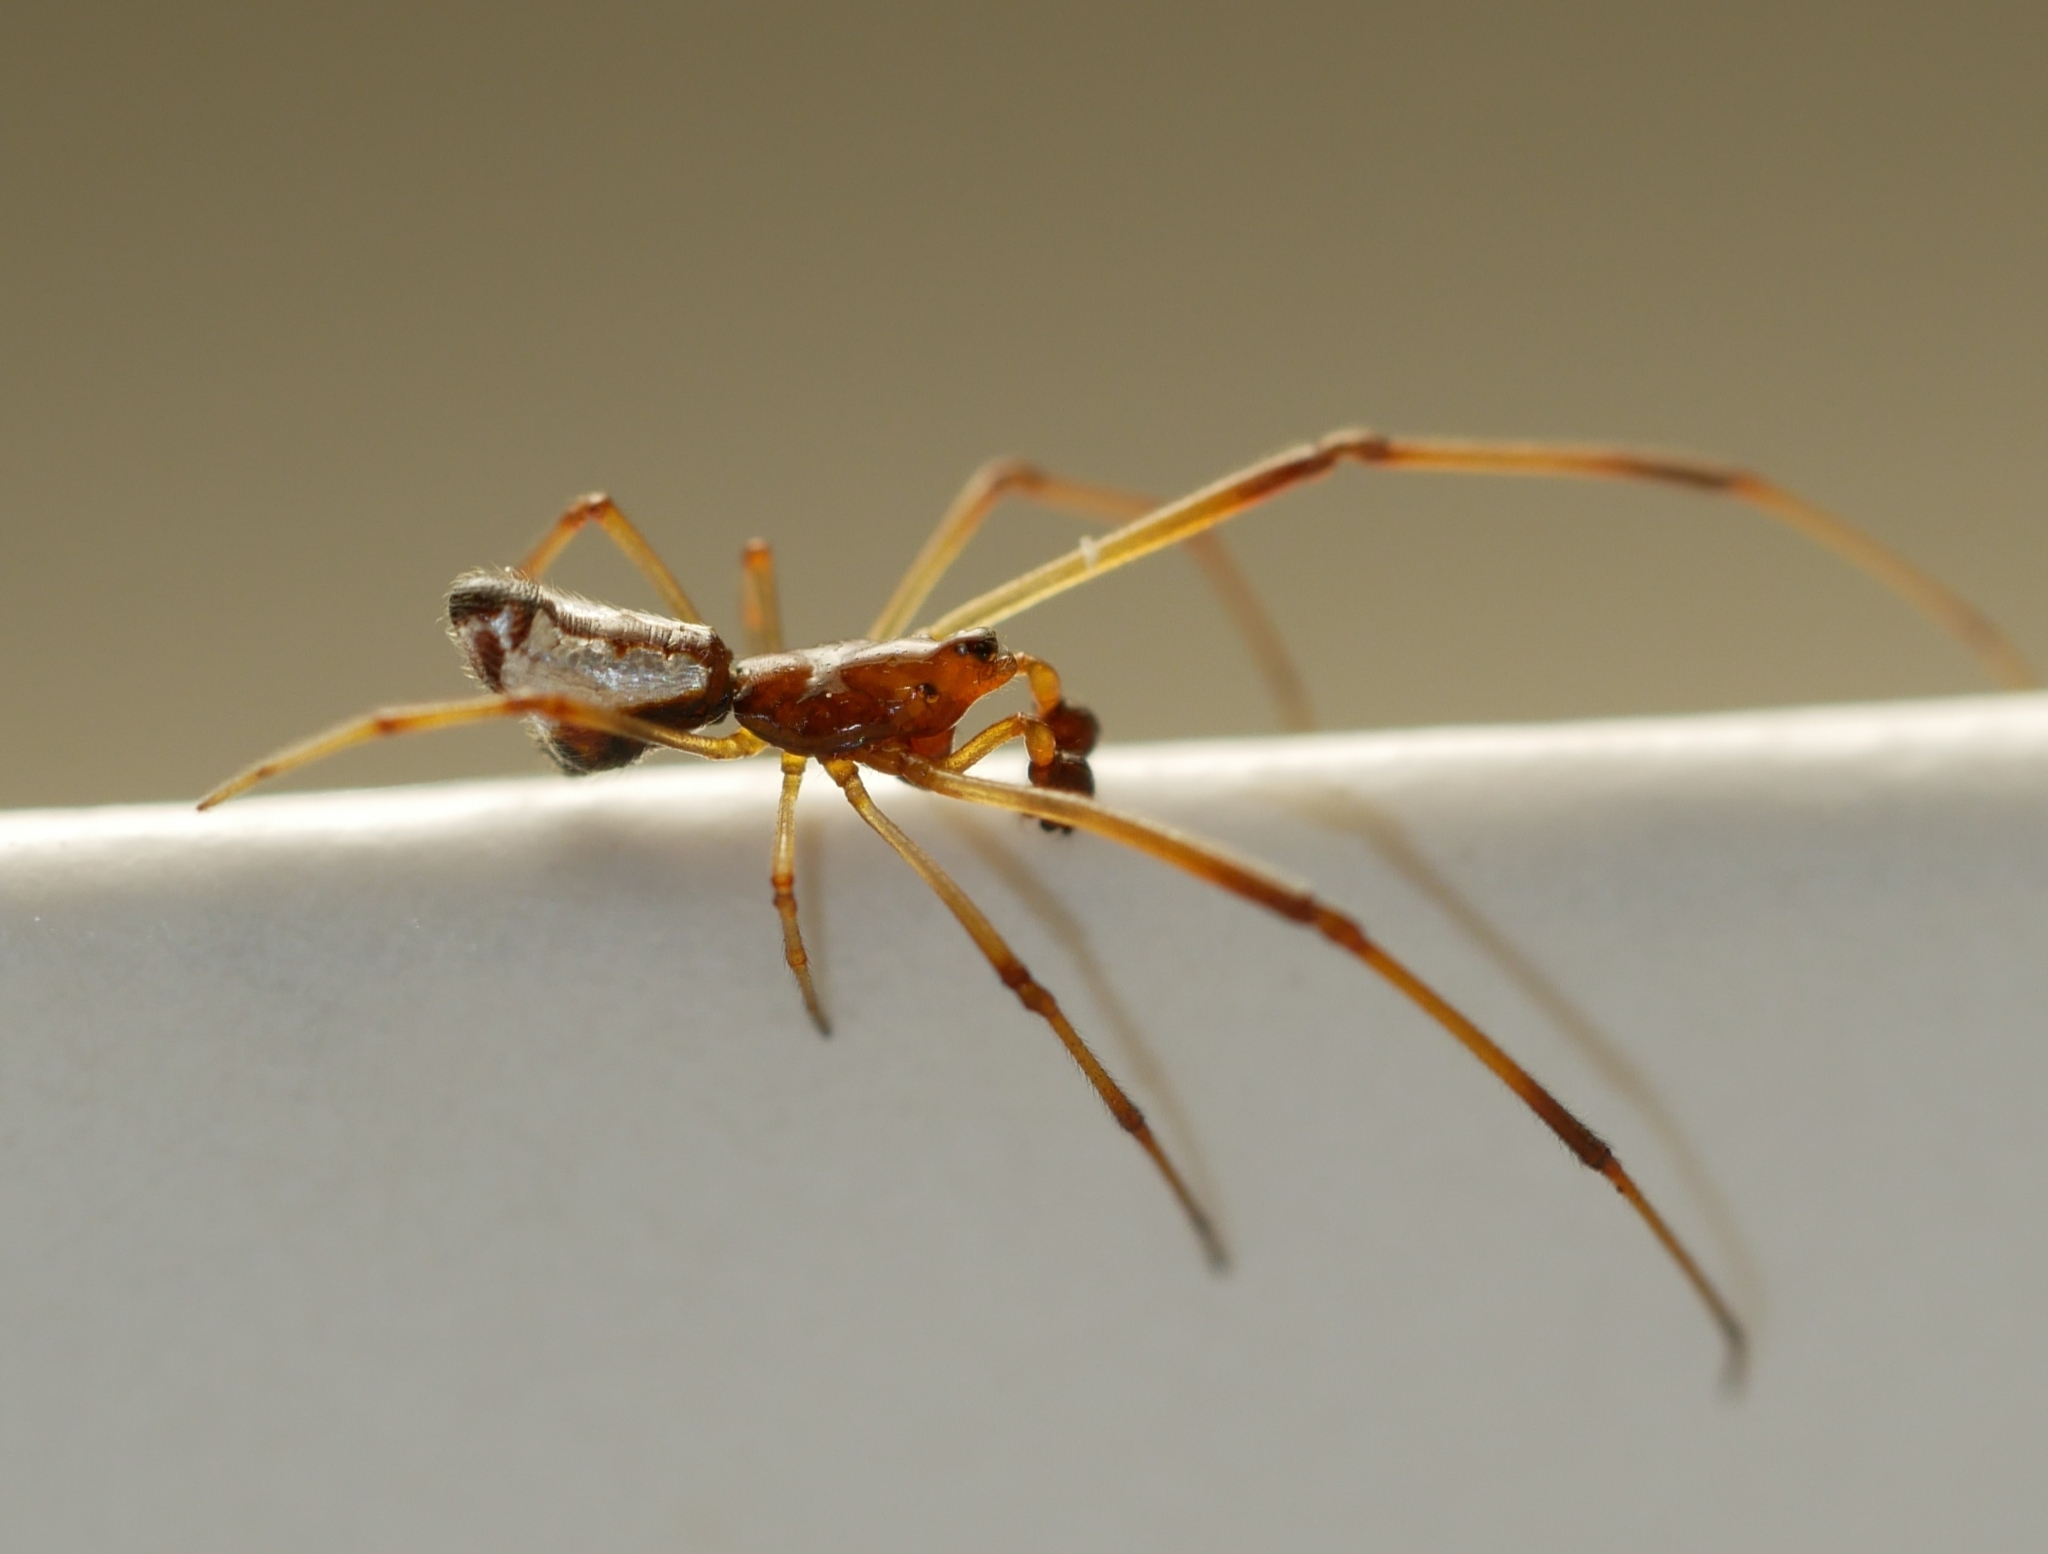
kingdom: Animalia
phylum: Arthropoda
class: Arachnida
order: Araneae
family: Theridiidae
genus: Argyrodes
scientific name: Argyrodes elevatus
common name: Cobweb spiders
